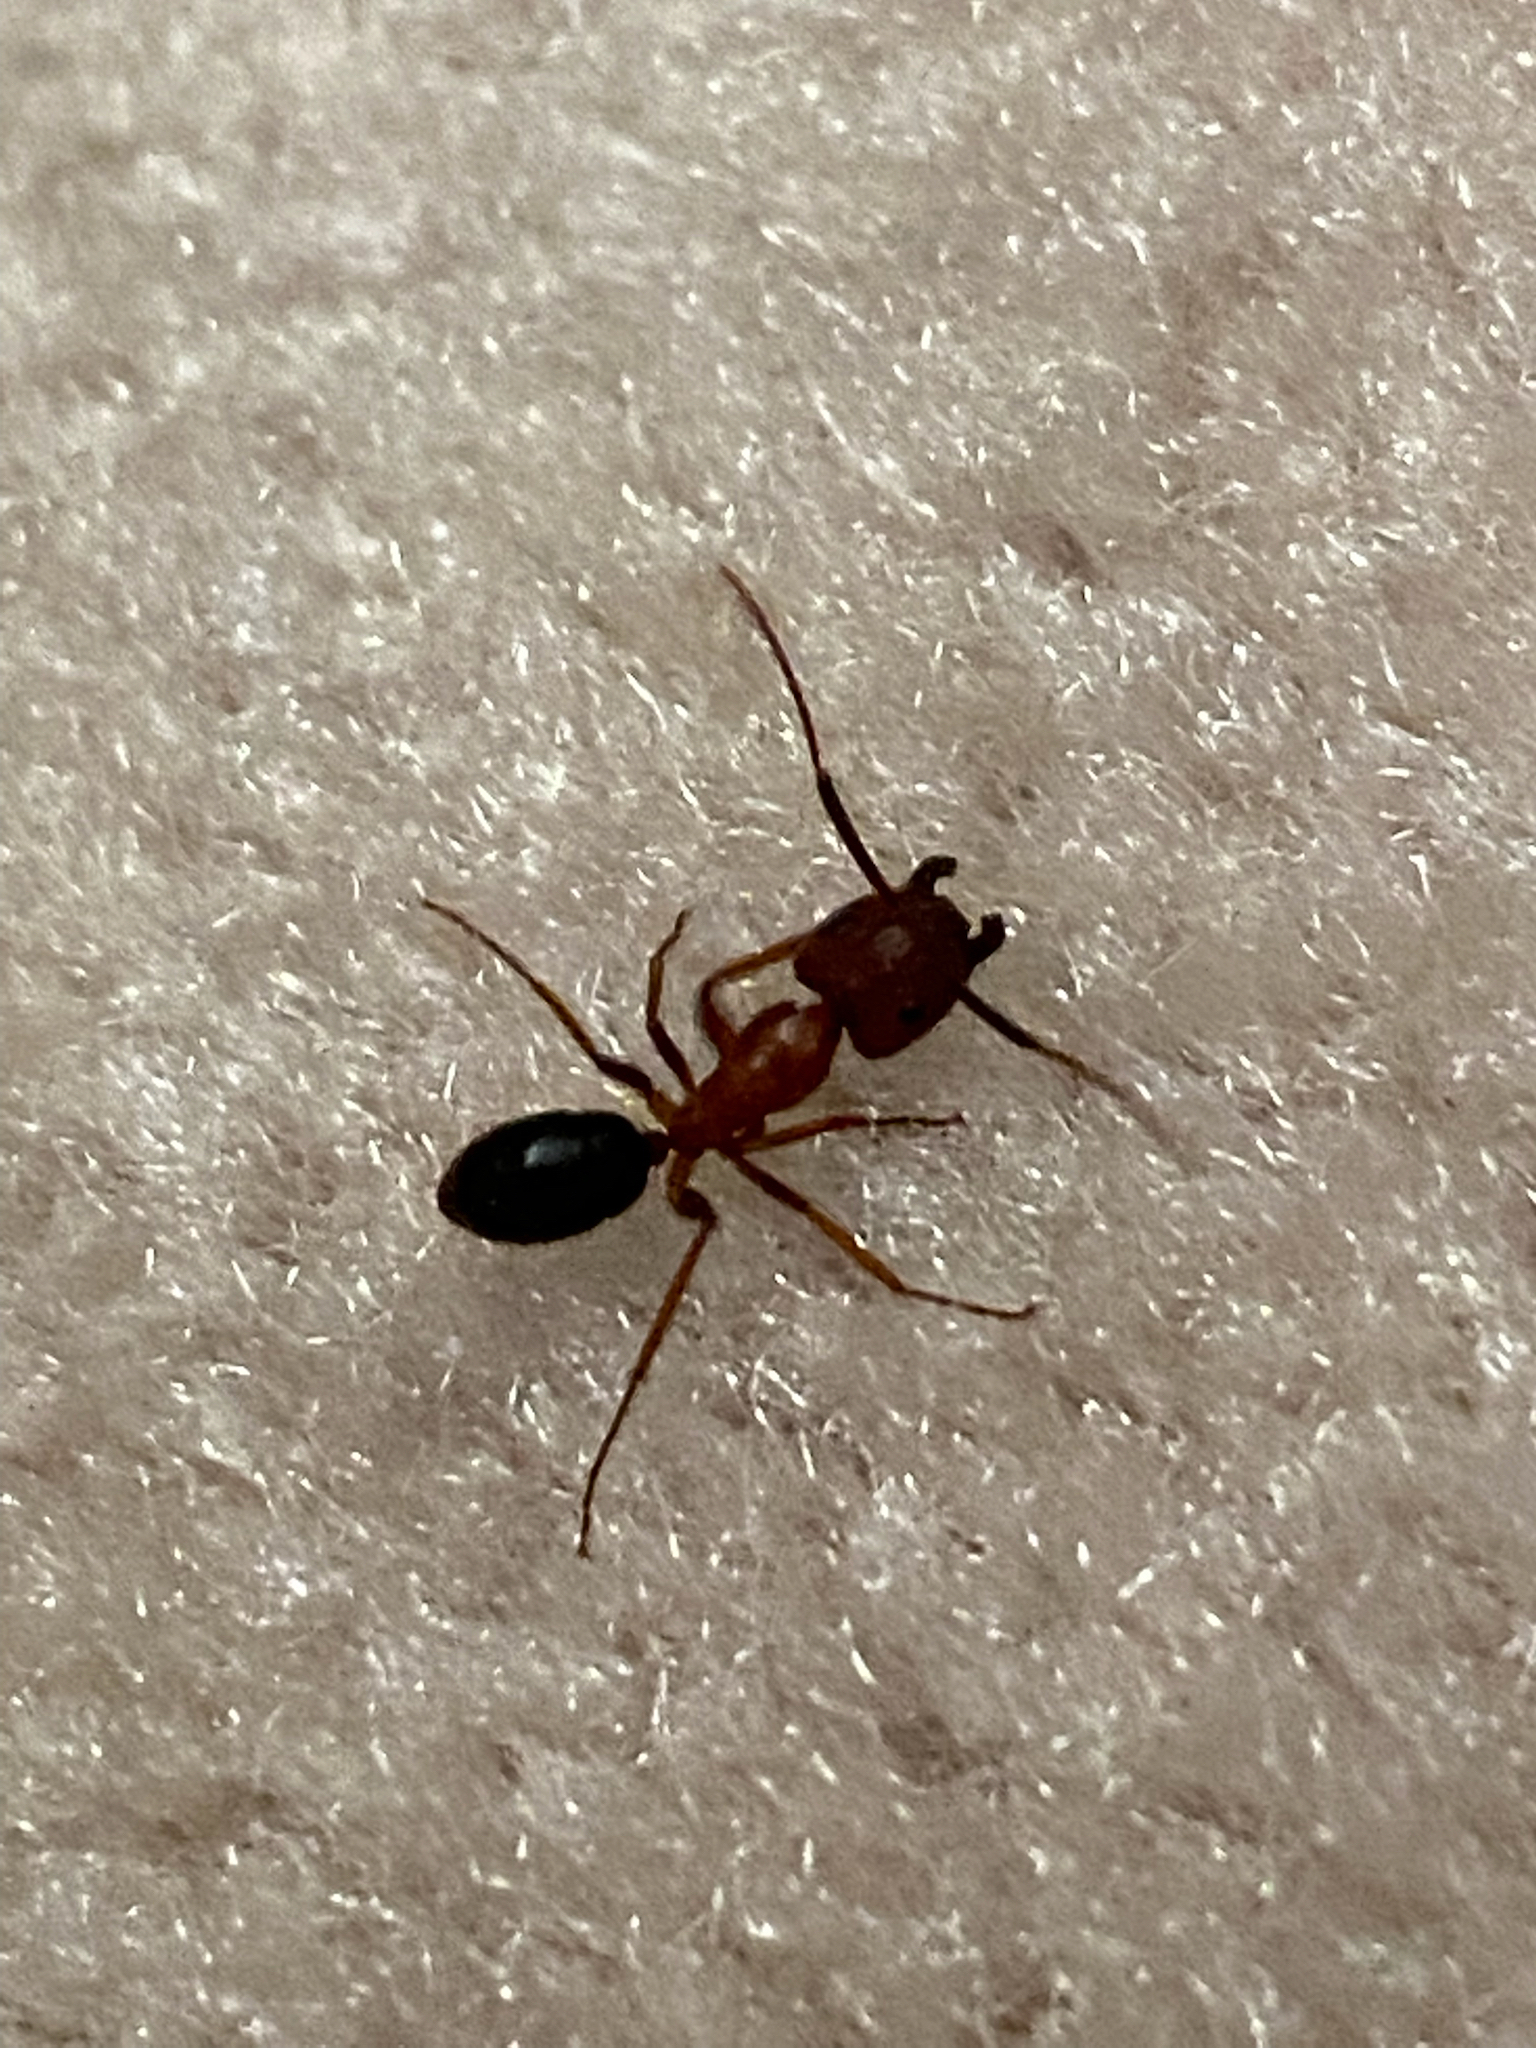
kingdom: Animalia
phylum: Arthropoda
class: Insecta
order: Hymenoptera
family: Formicidae
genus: Camponotus
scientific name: Camponotus floridanus
